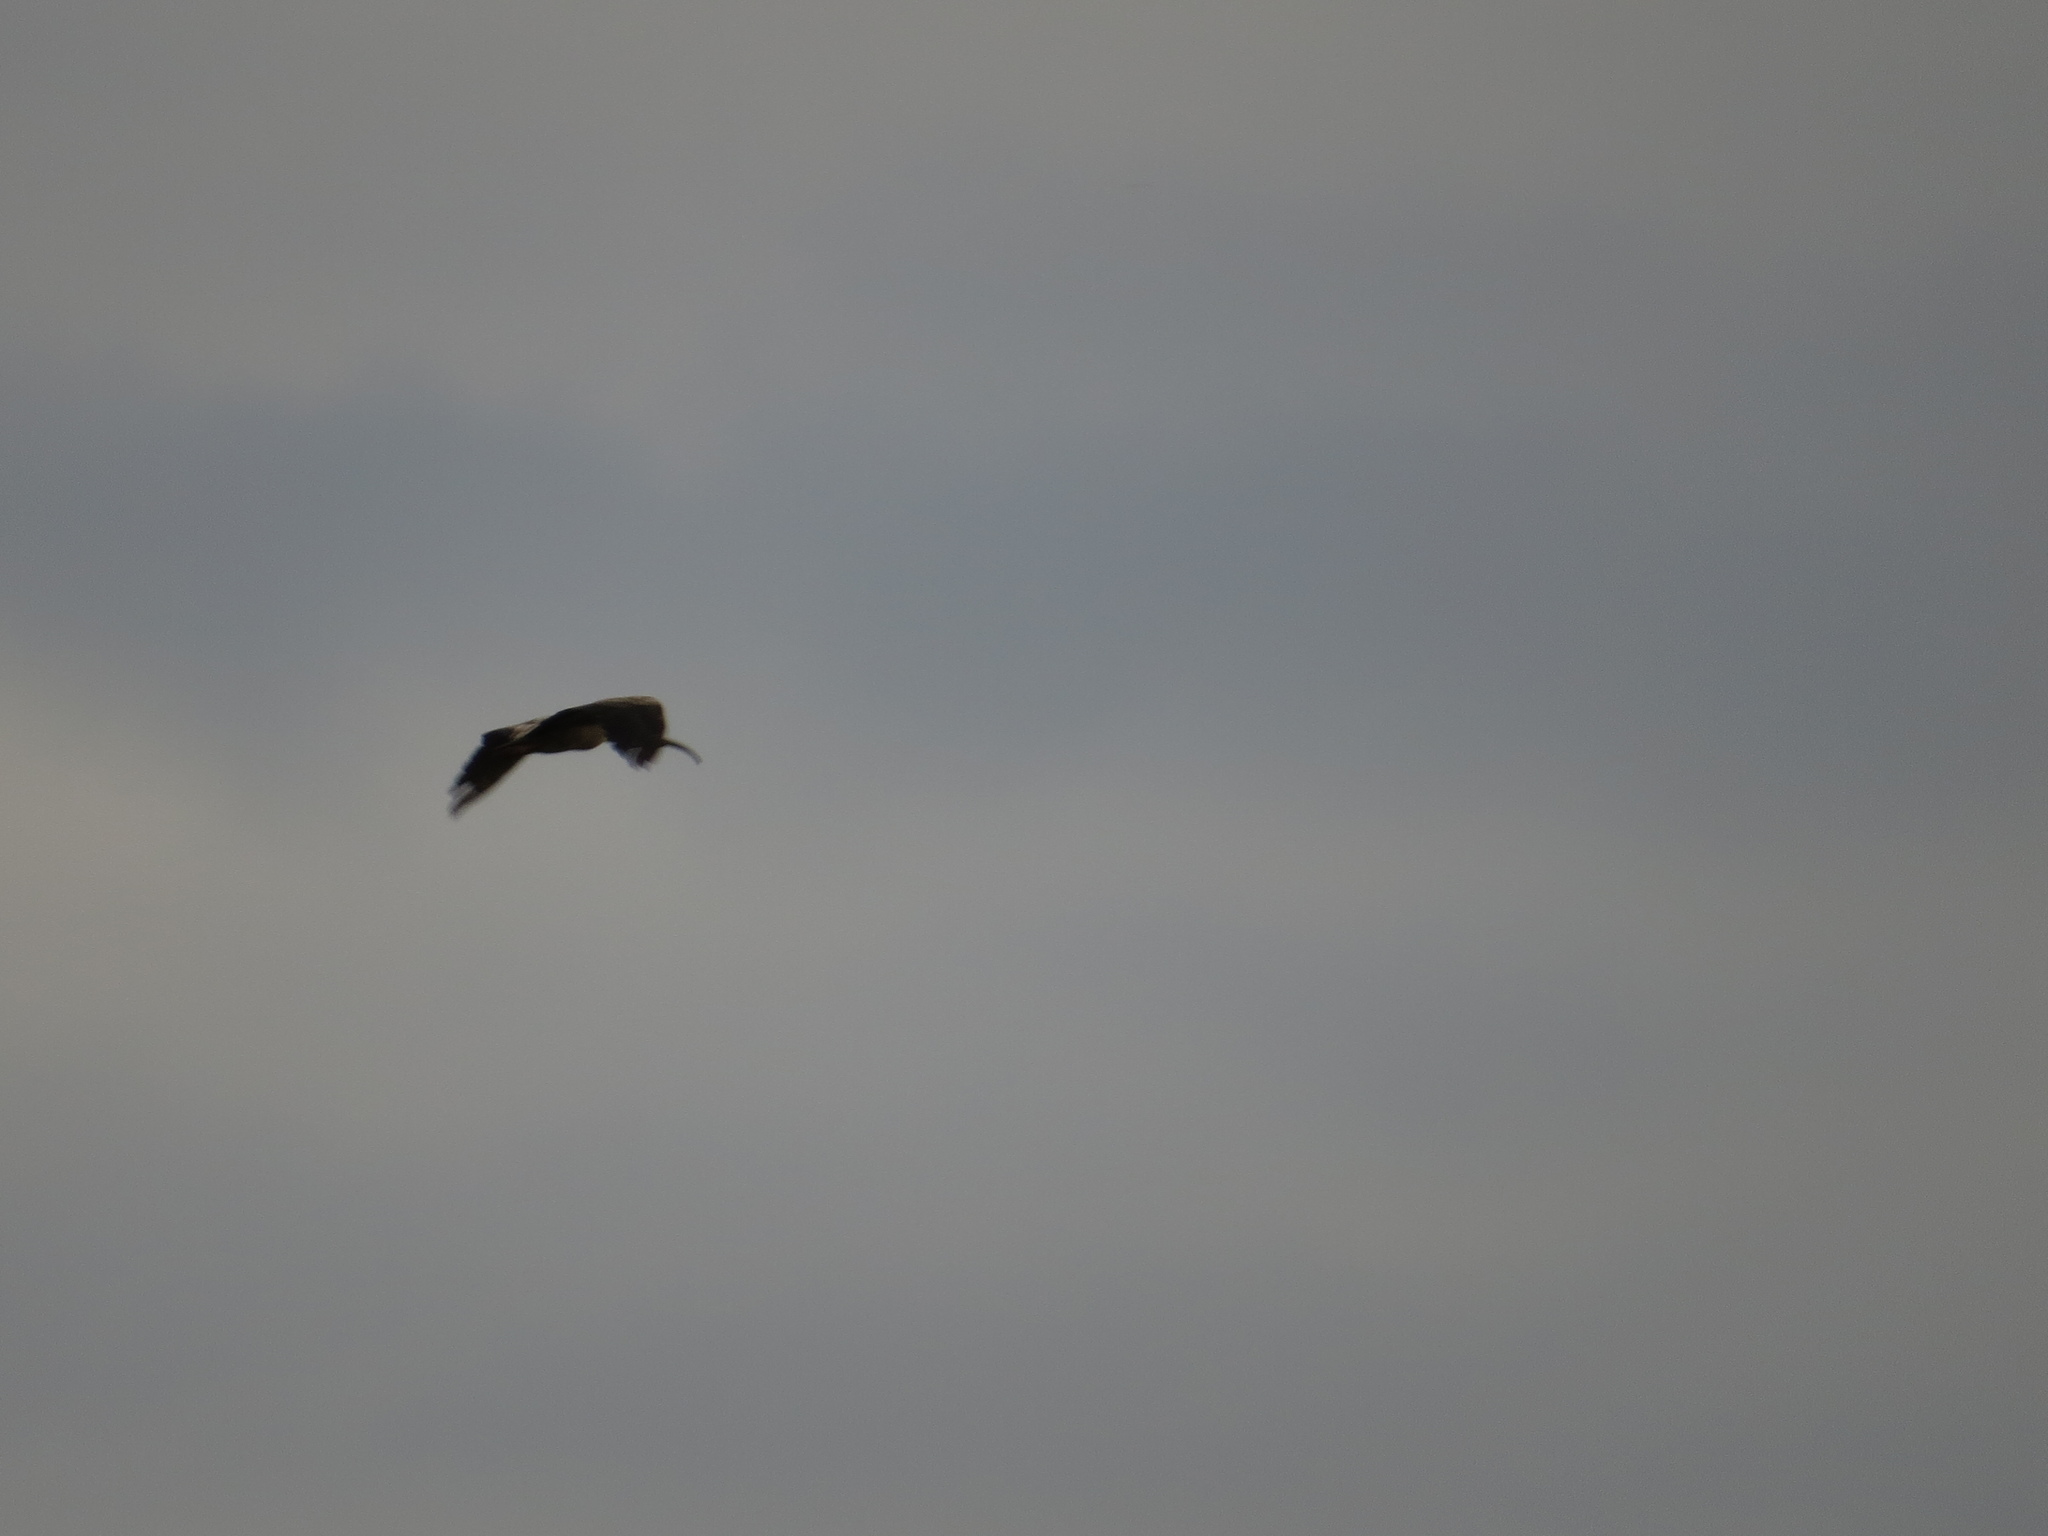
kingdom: Animalia
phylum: Chordata
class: Aves
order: Pelecaniformes
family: Threskiornithidae
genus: Theristicus
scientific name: Theristicus caerulescens
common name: Plumbeous ibis
